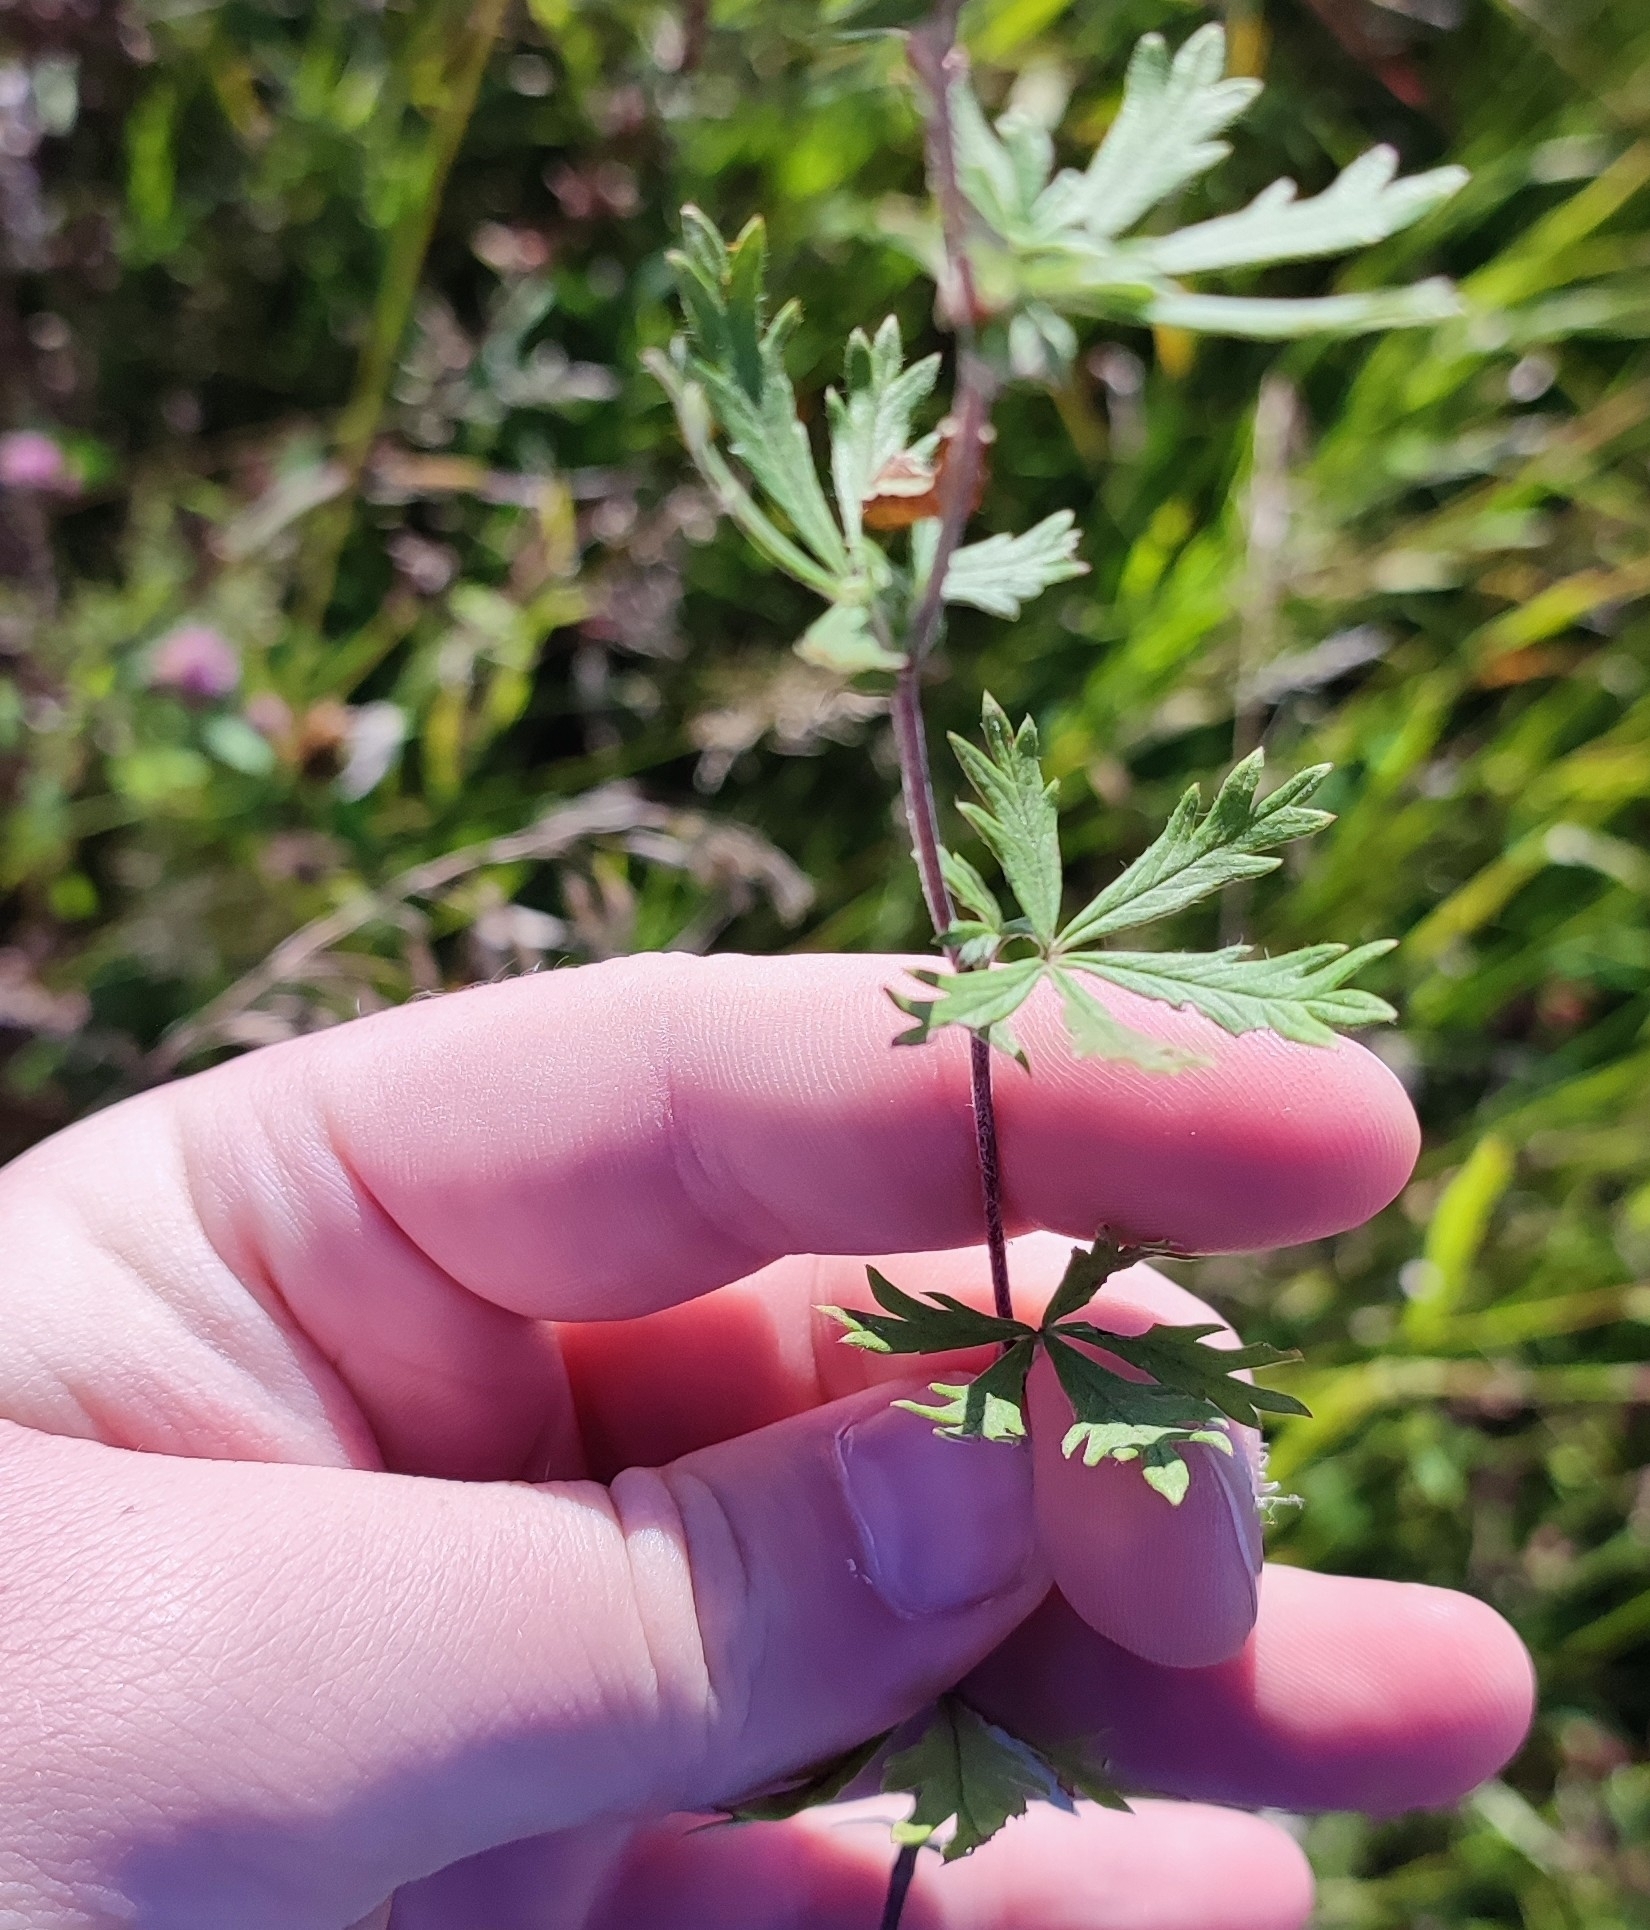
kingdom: Plantae
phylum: Tracheophyta
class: Magnoliopsida
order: Rosales
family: Rosaceae
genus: Potentilla
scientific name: Potentilla argentea
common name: Hoary cinquefoil
